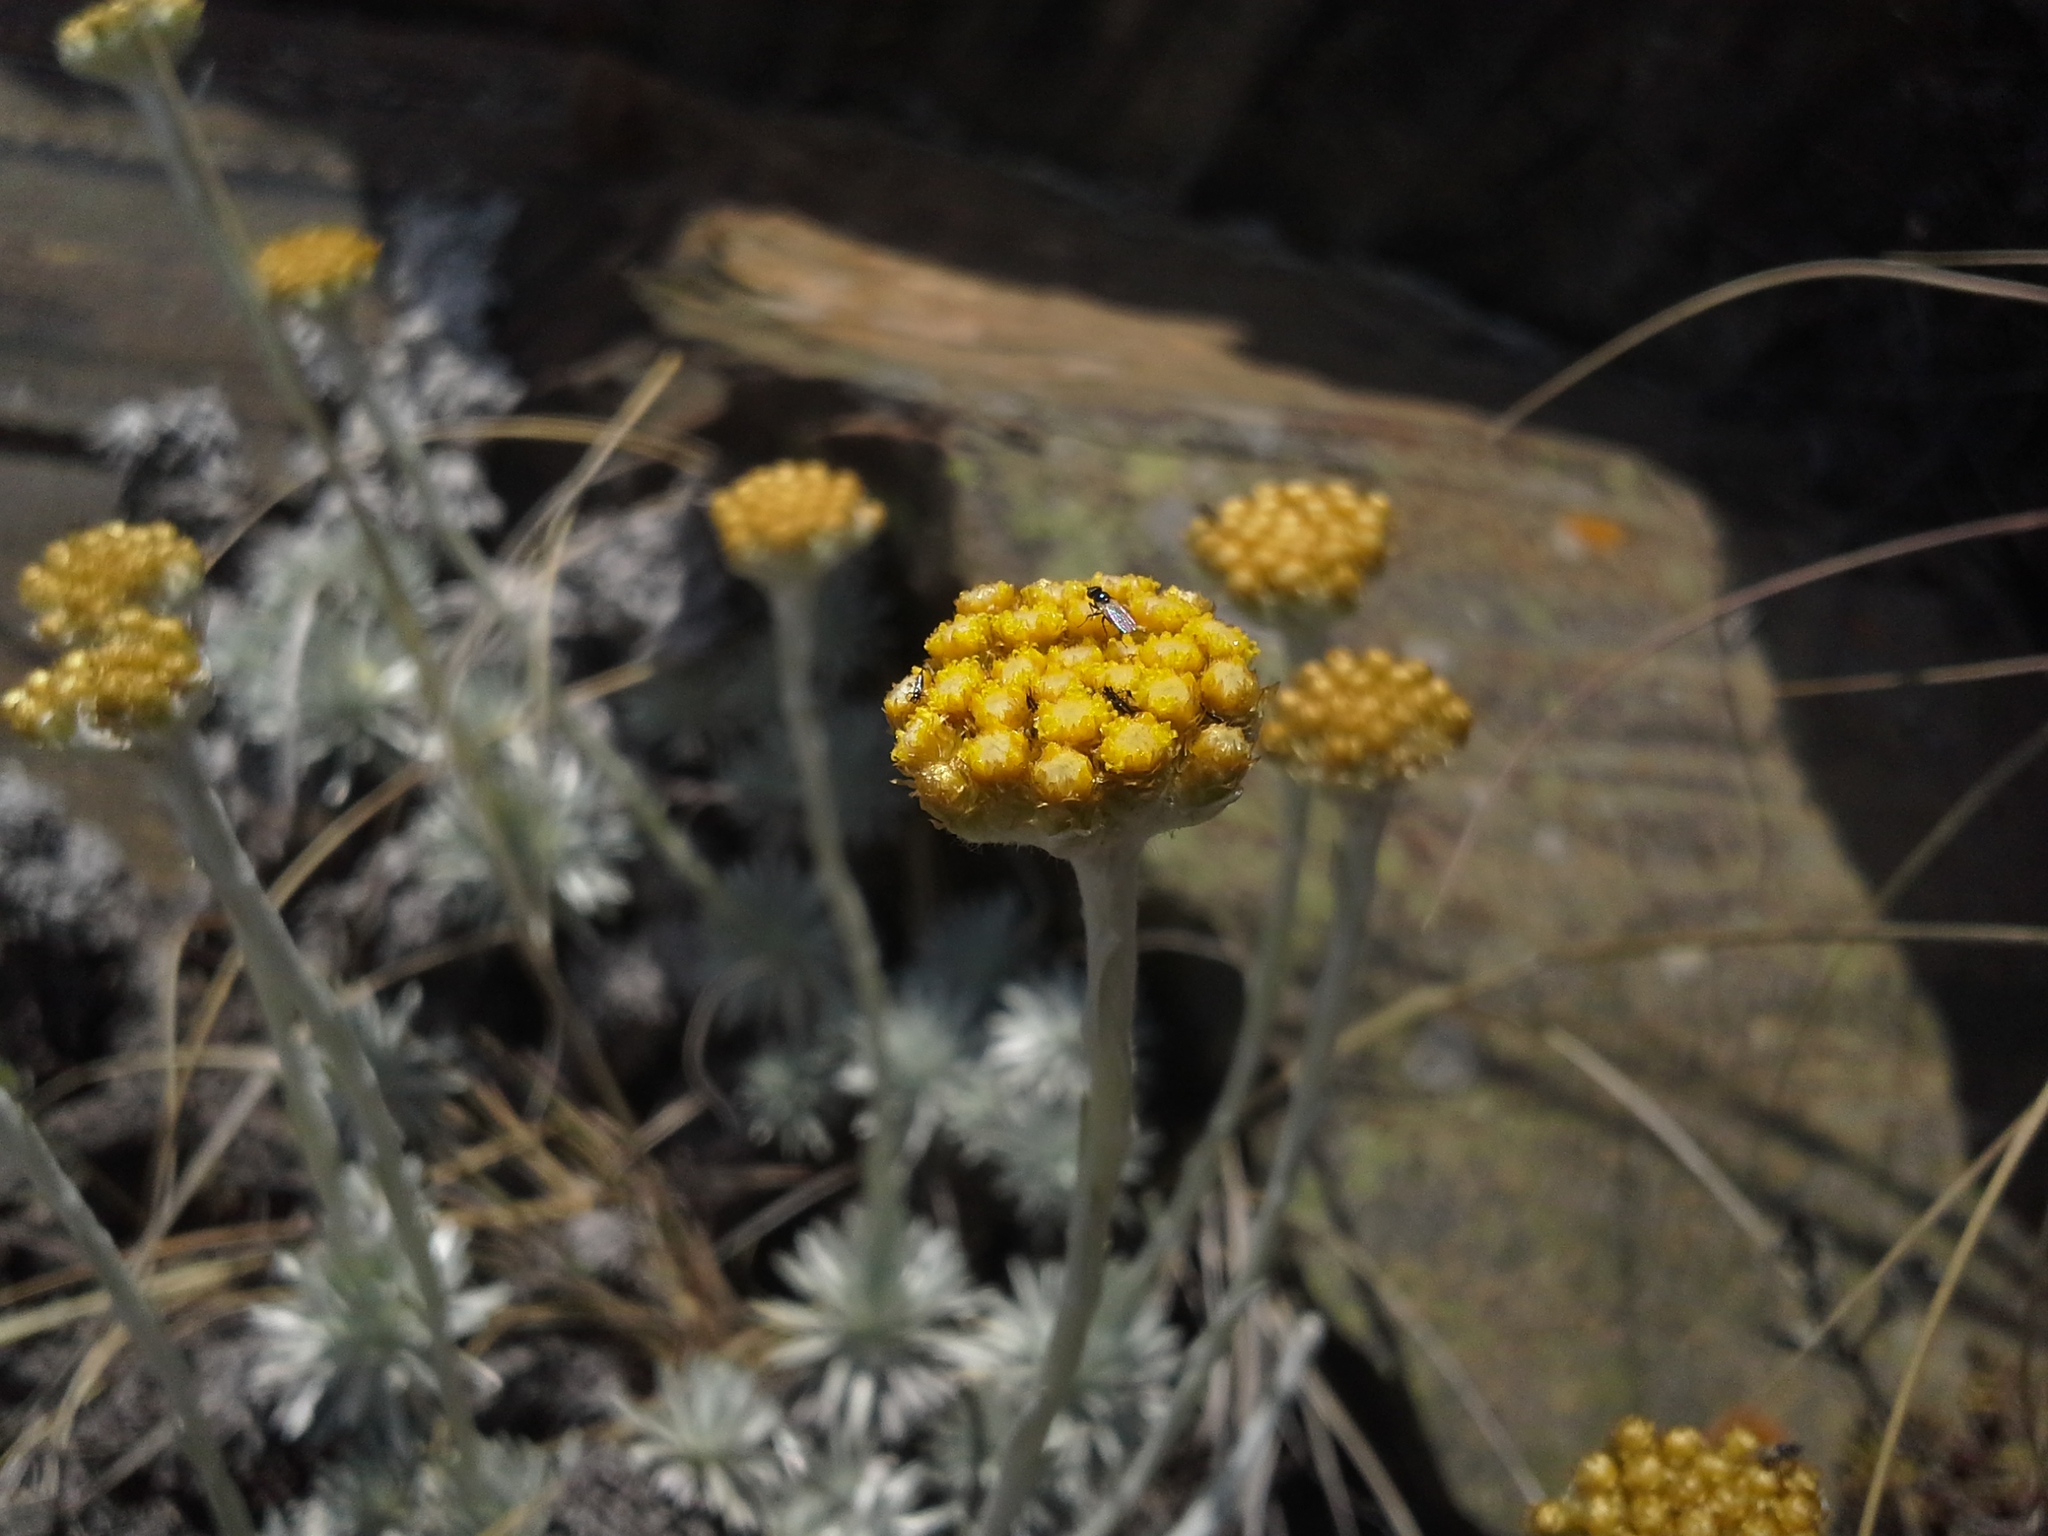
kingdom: Plantae
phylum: Tracheophyta
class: Magnoliopsida
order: Asterales
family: Asteraceae
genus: Helichrysum
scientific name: Helichrysum galpinii
